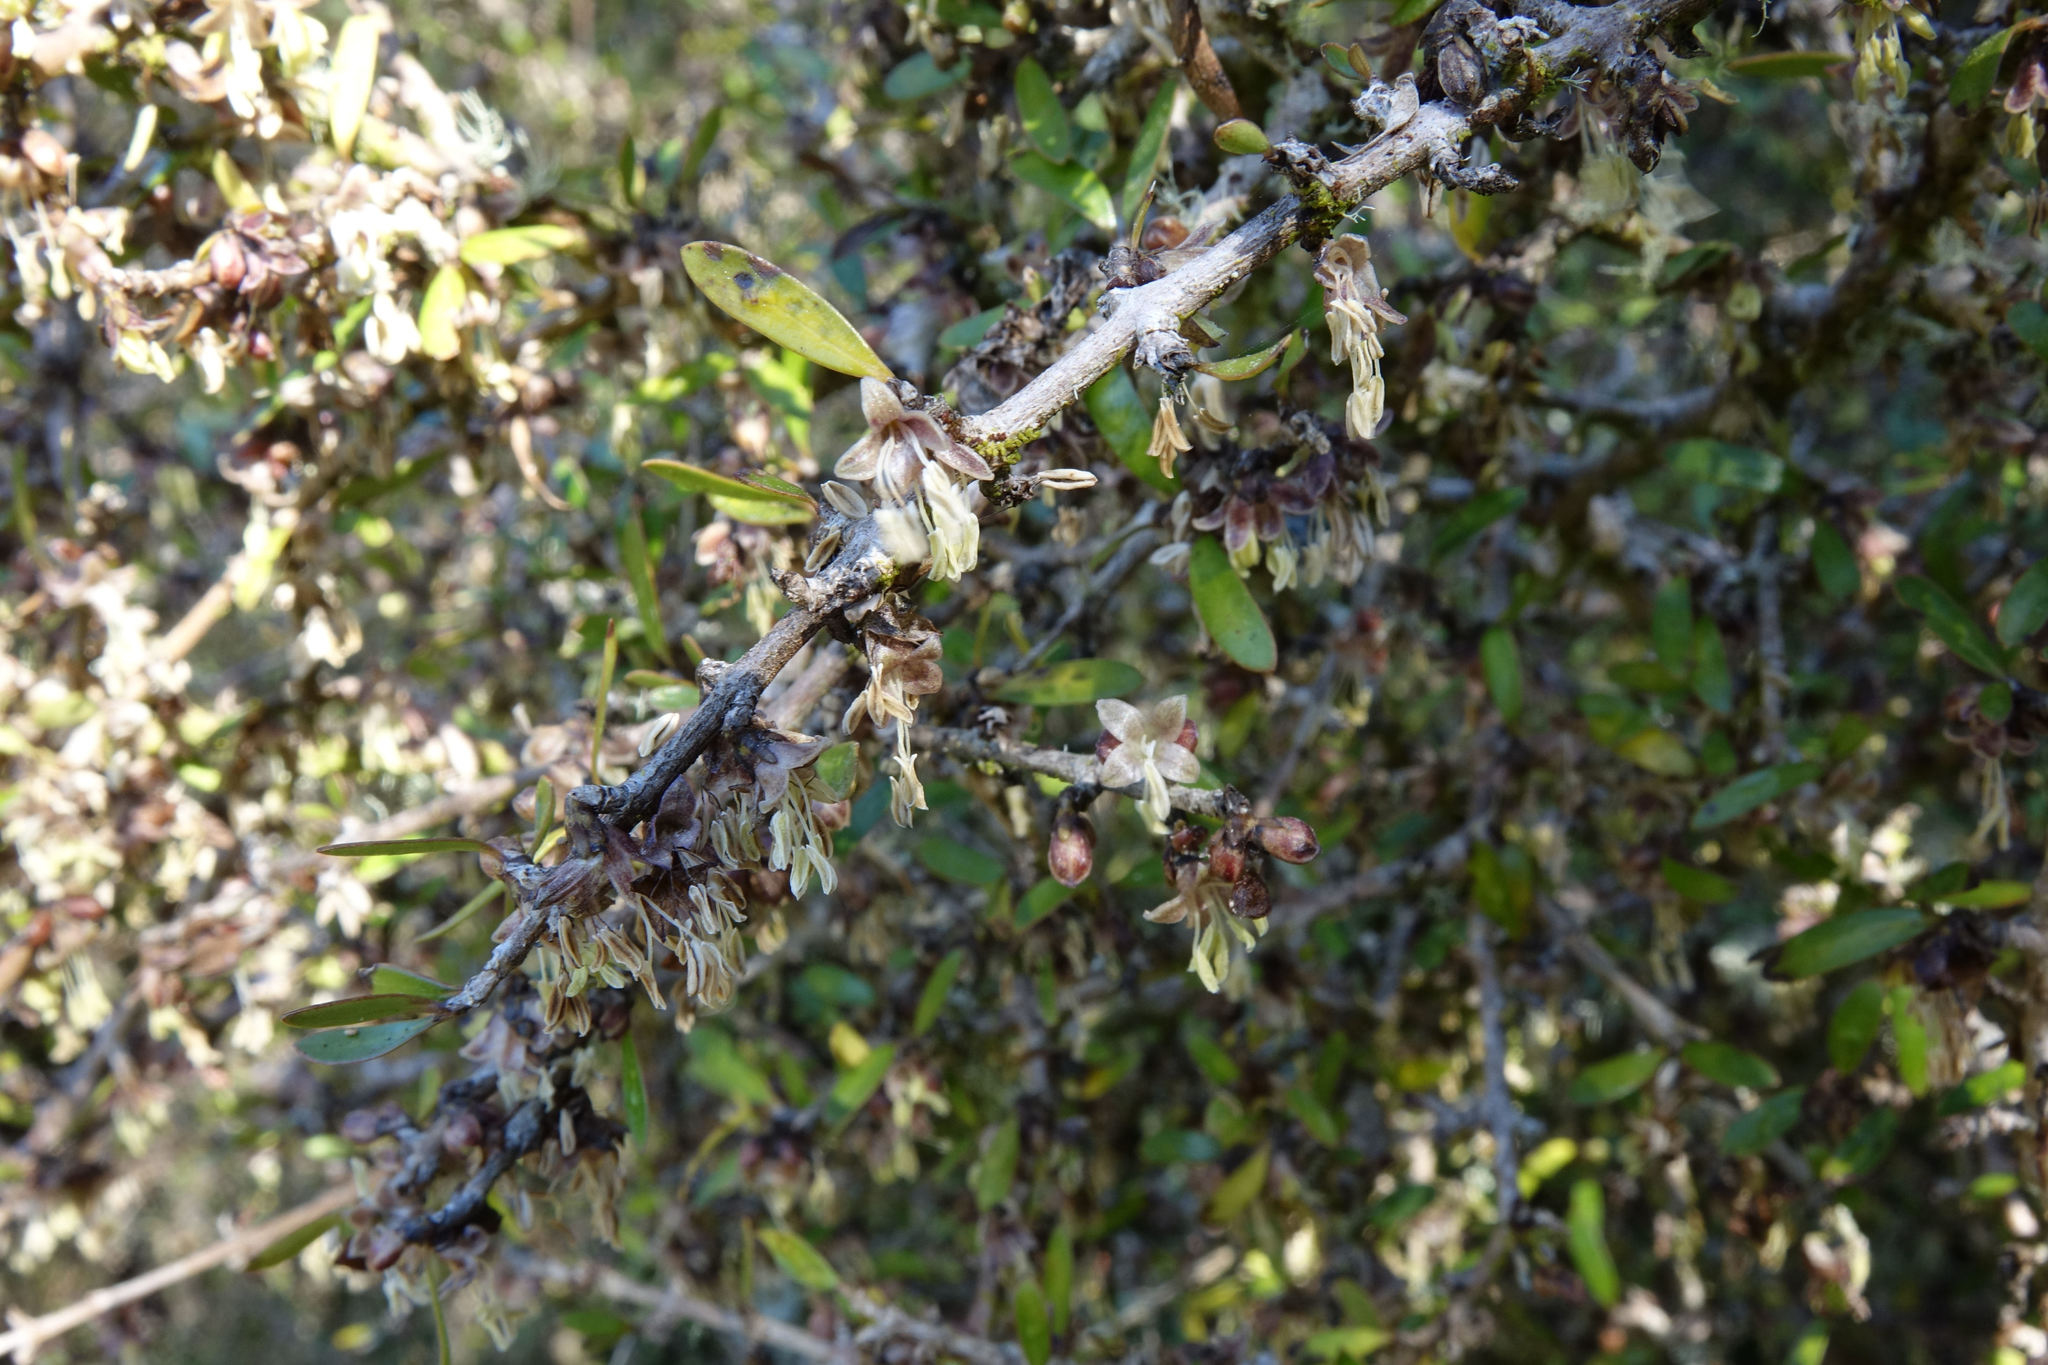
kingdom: Plantae
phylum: Tracheophyta
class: Magnoliopsida
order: Gentianales
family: Rubiaceae
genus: Coprosma
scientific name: Coprosma propinqua
